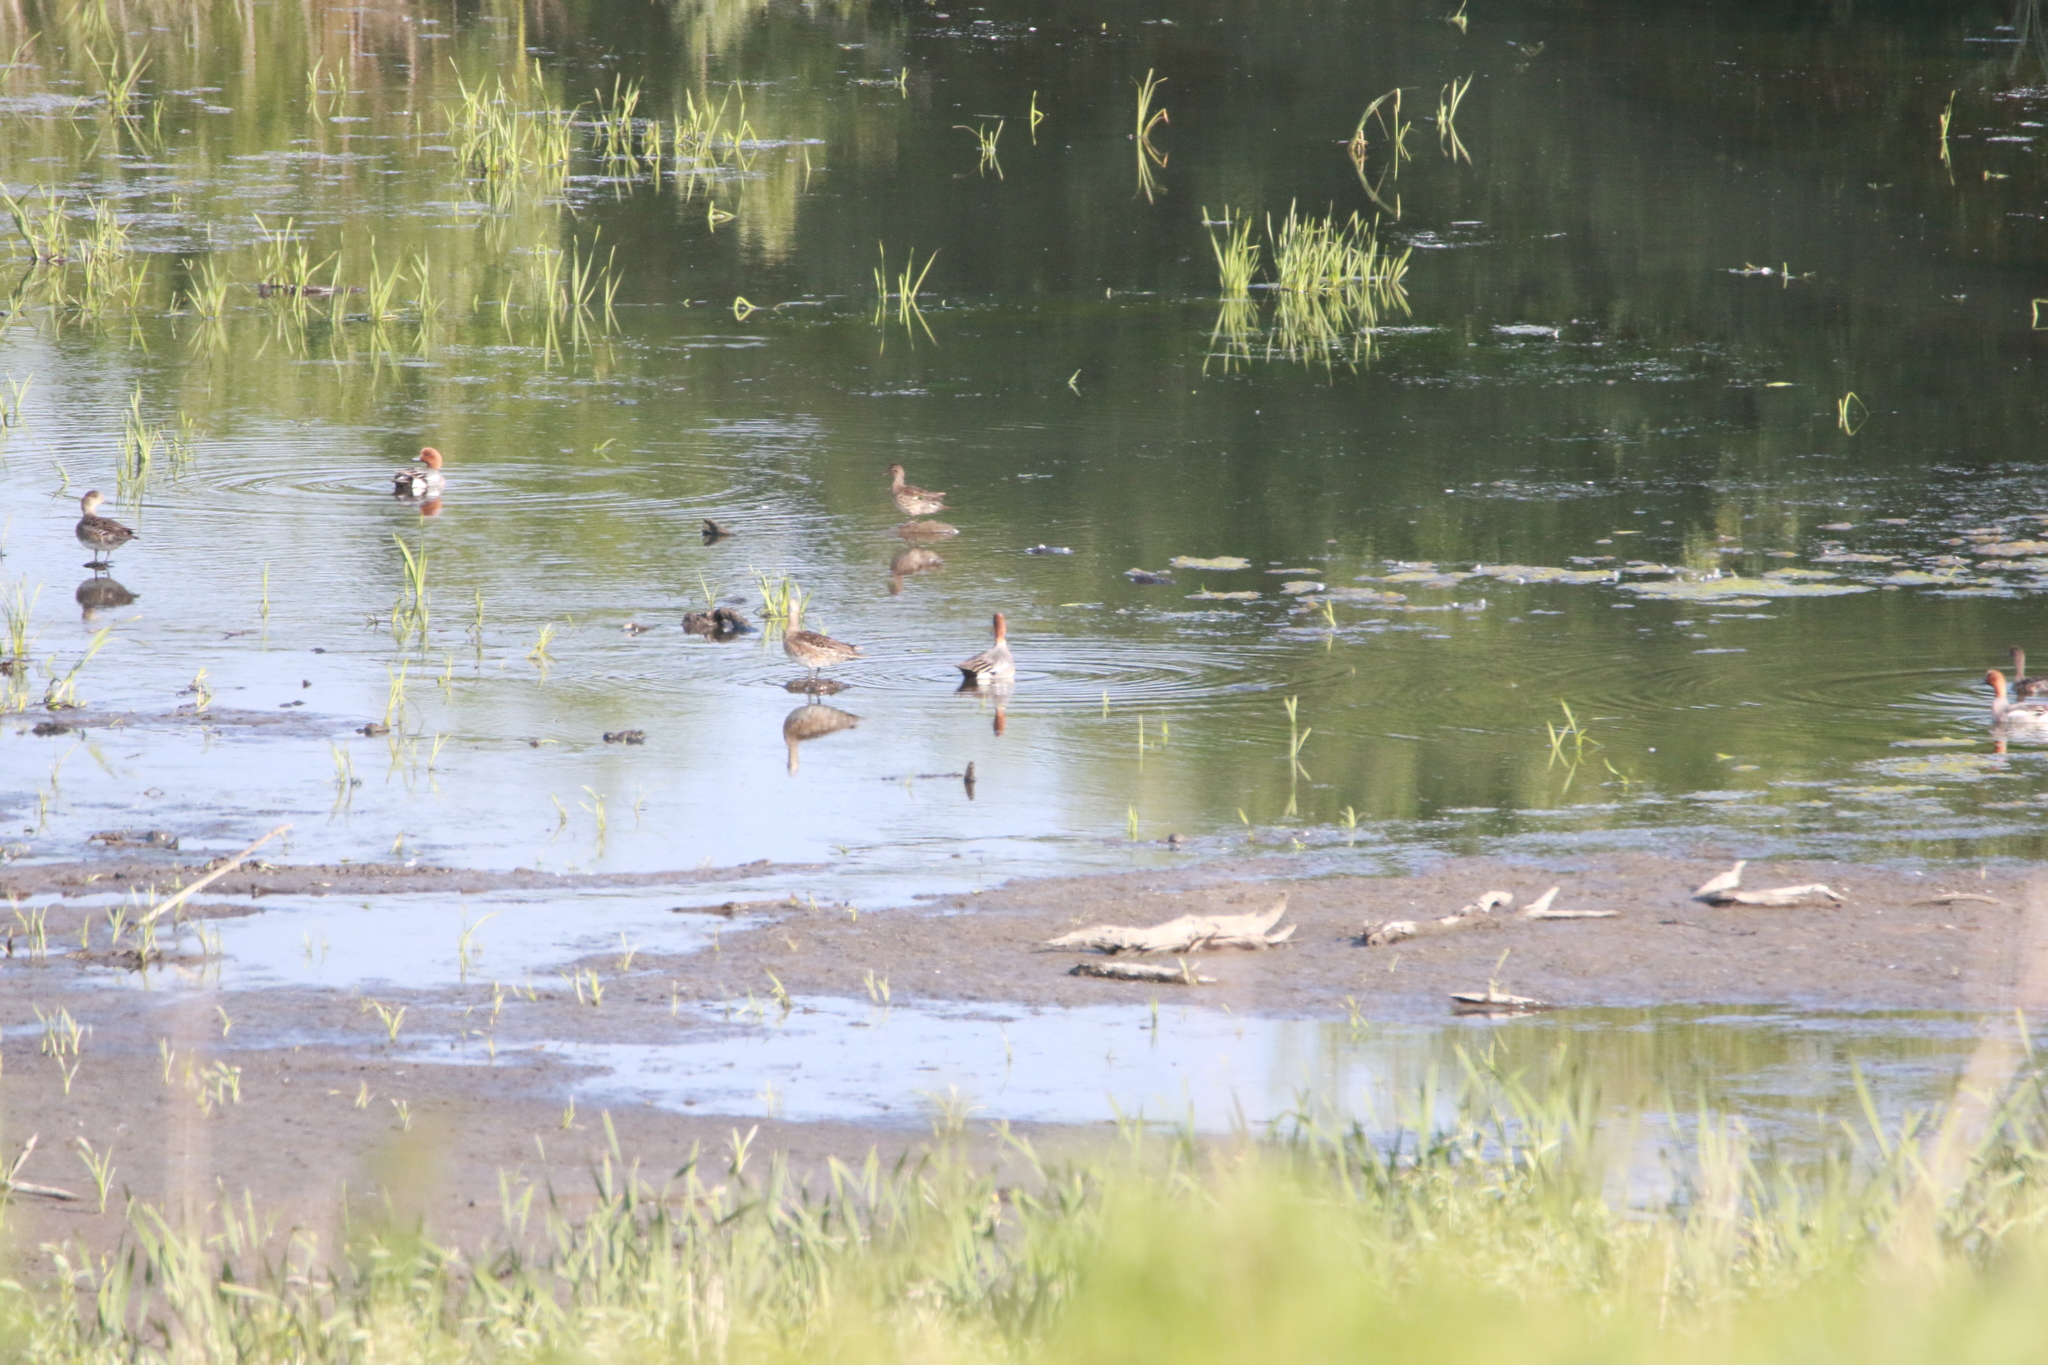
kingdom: Animalia
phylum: Chordata
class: Aves
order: Anseriformes
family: Anatidae
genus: Mareca
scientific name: Mareca penelope
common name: Eurasian wigeon
